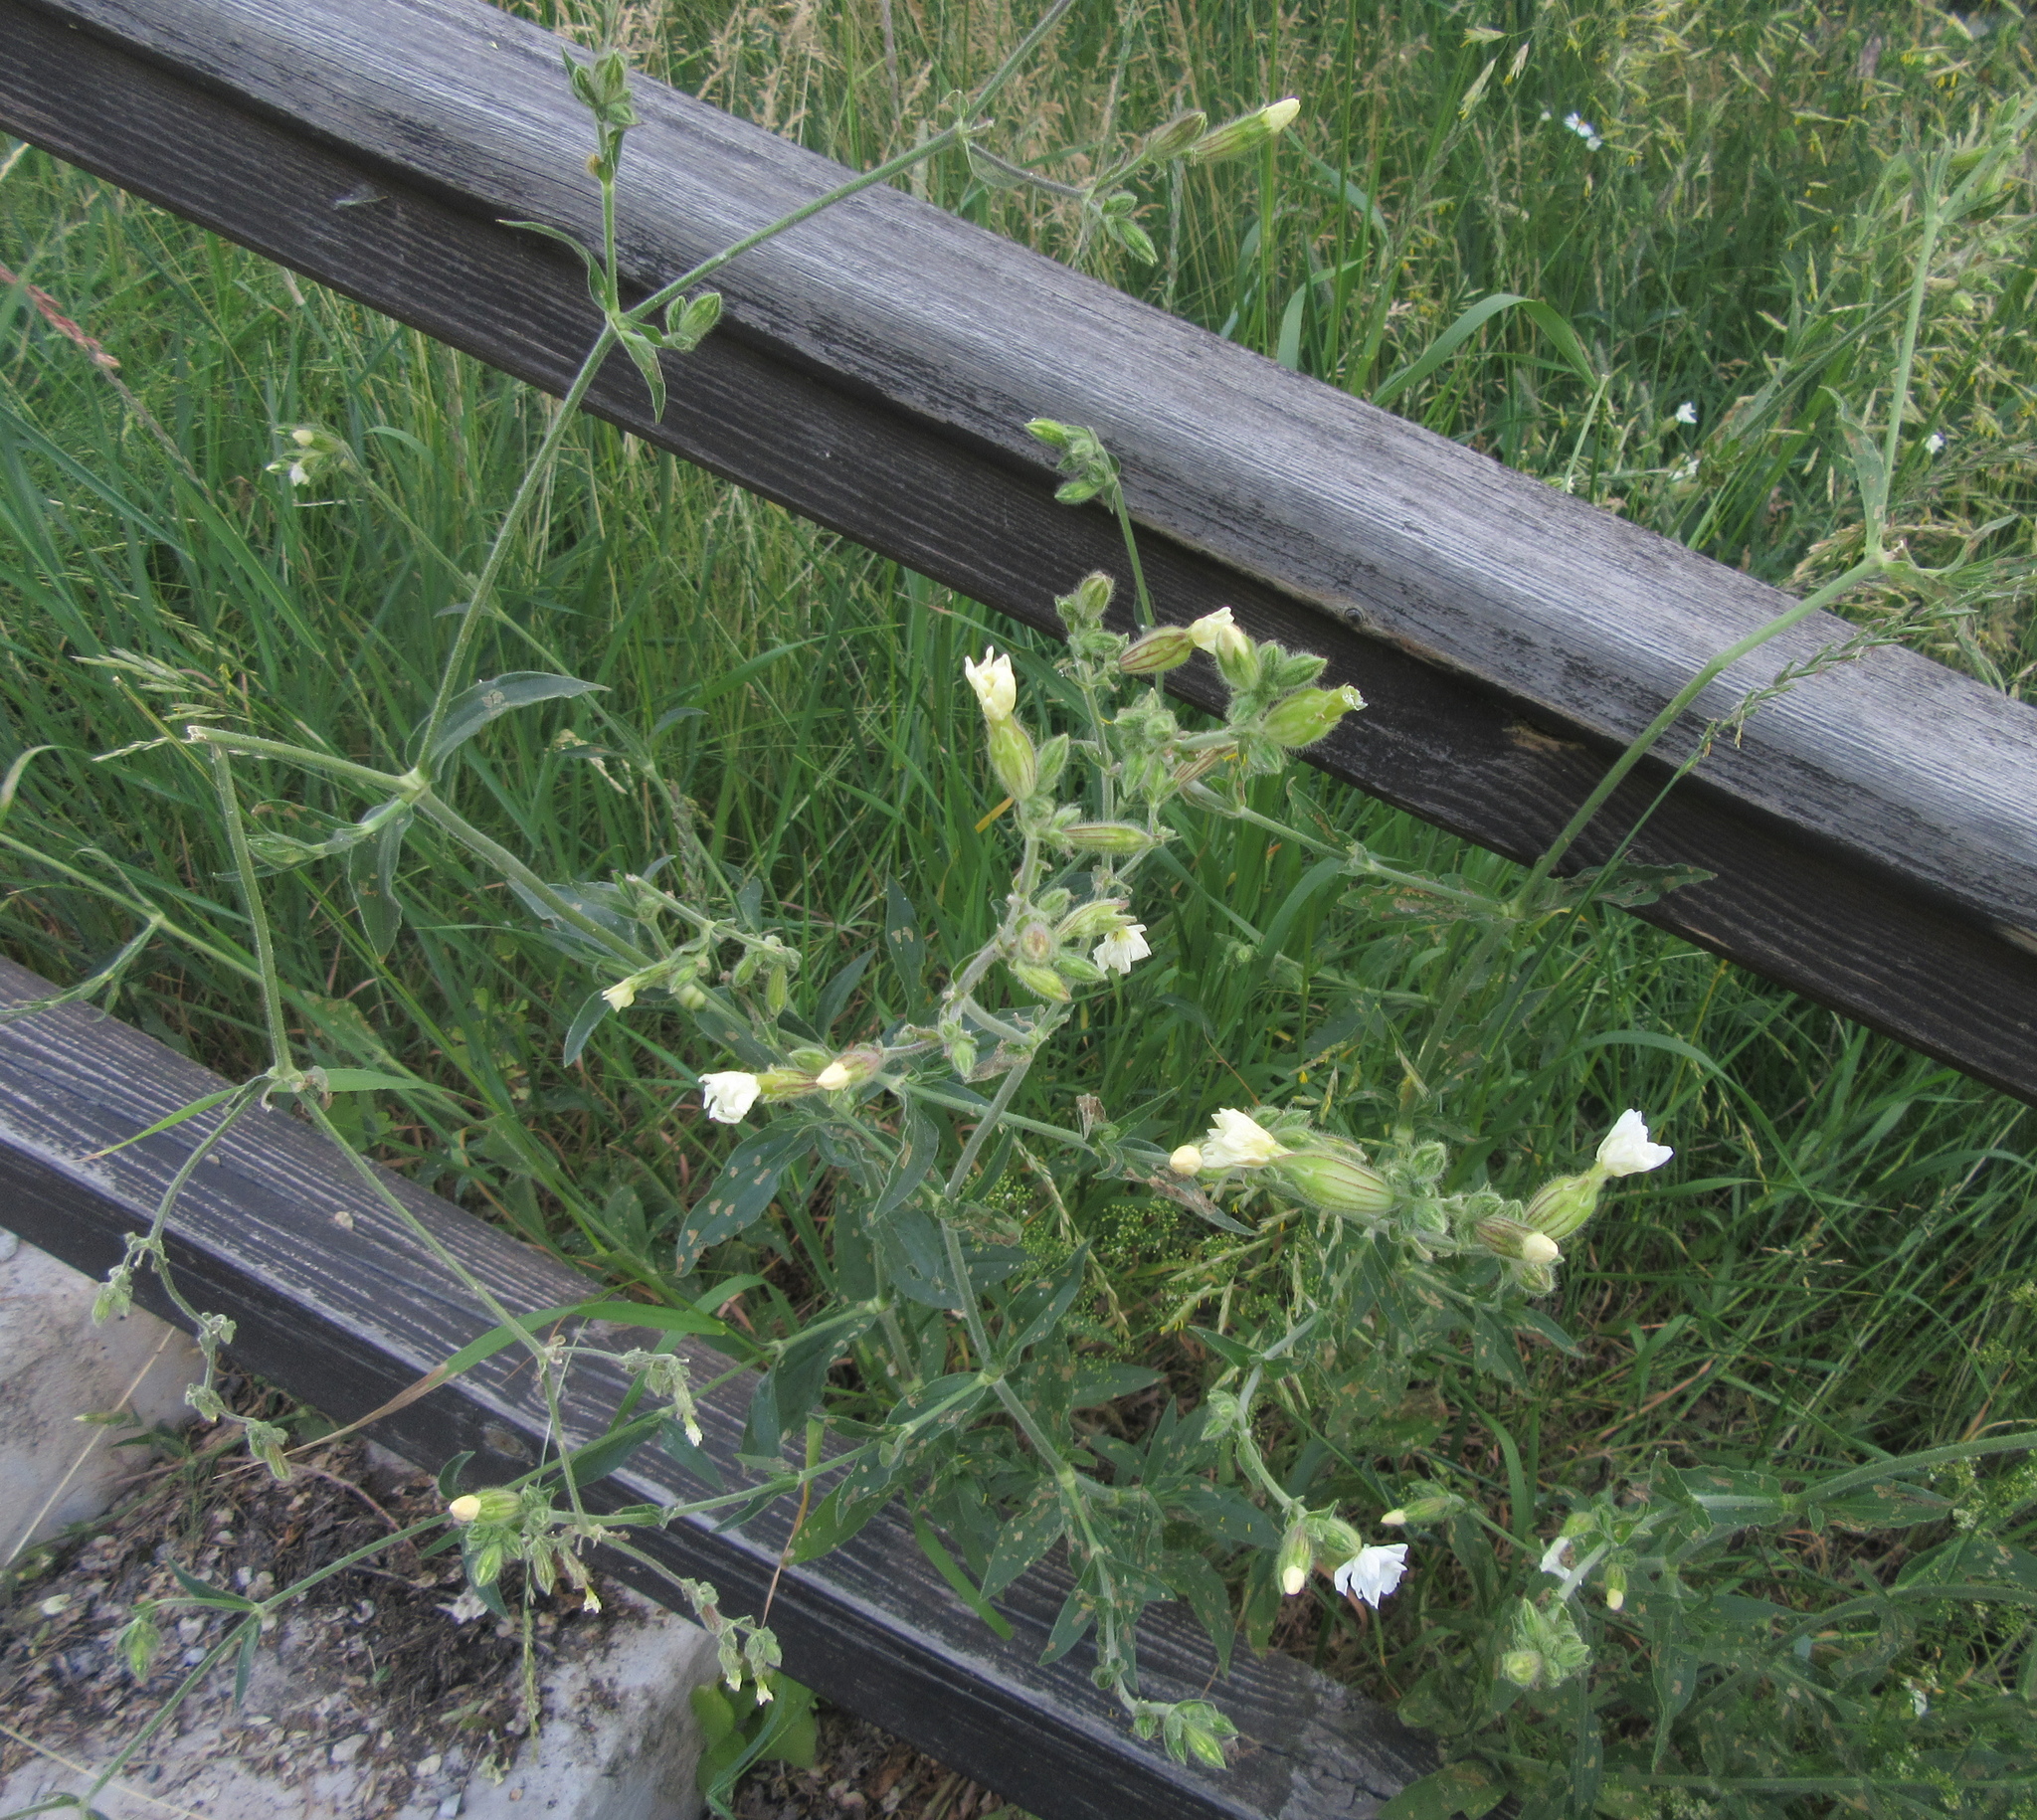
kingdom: Plantae
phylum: Tracheophyta
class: Magnoliopsida
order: Caryophyllales
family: Caryophyllaceae
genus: Silene
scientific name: Silene latifolia
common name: White campion
